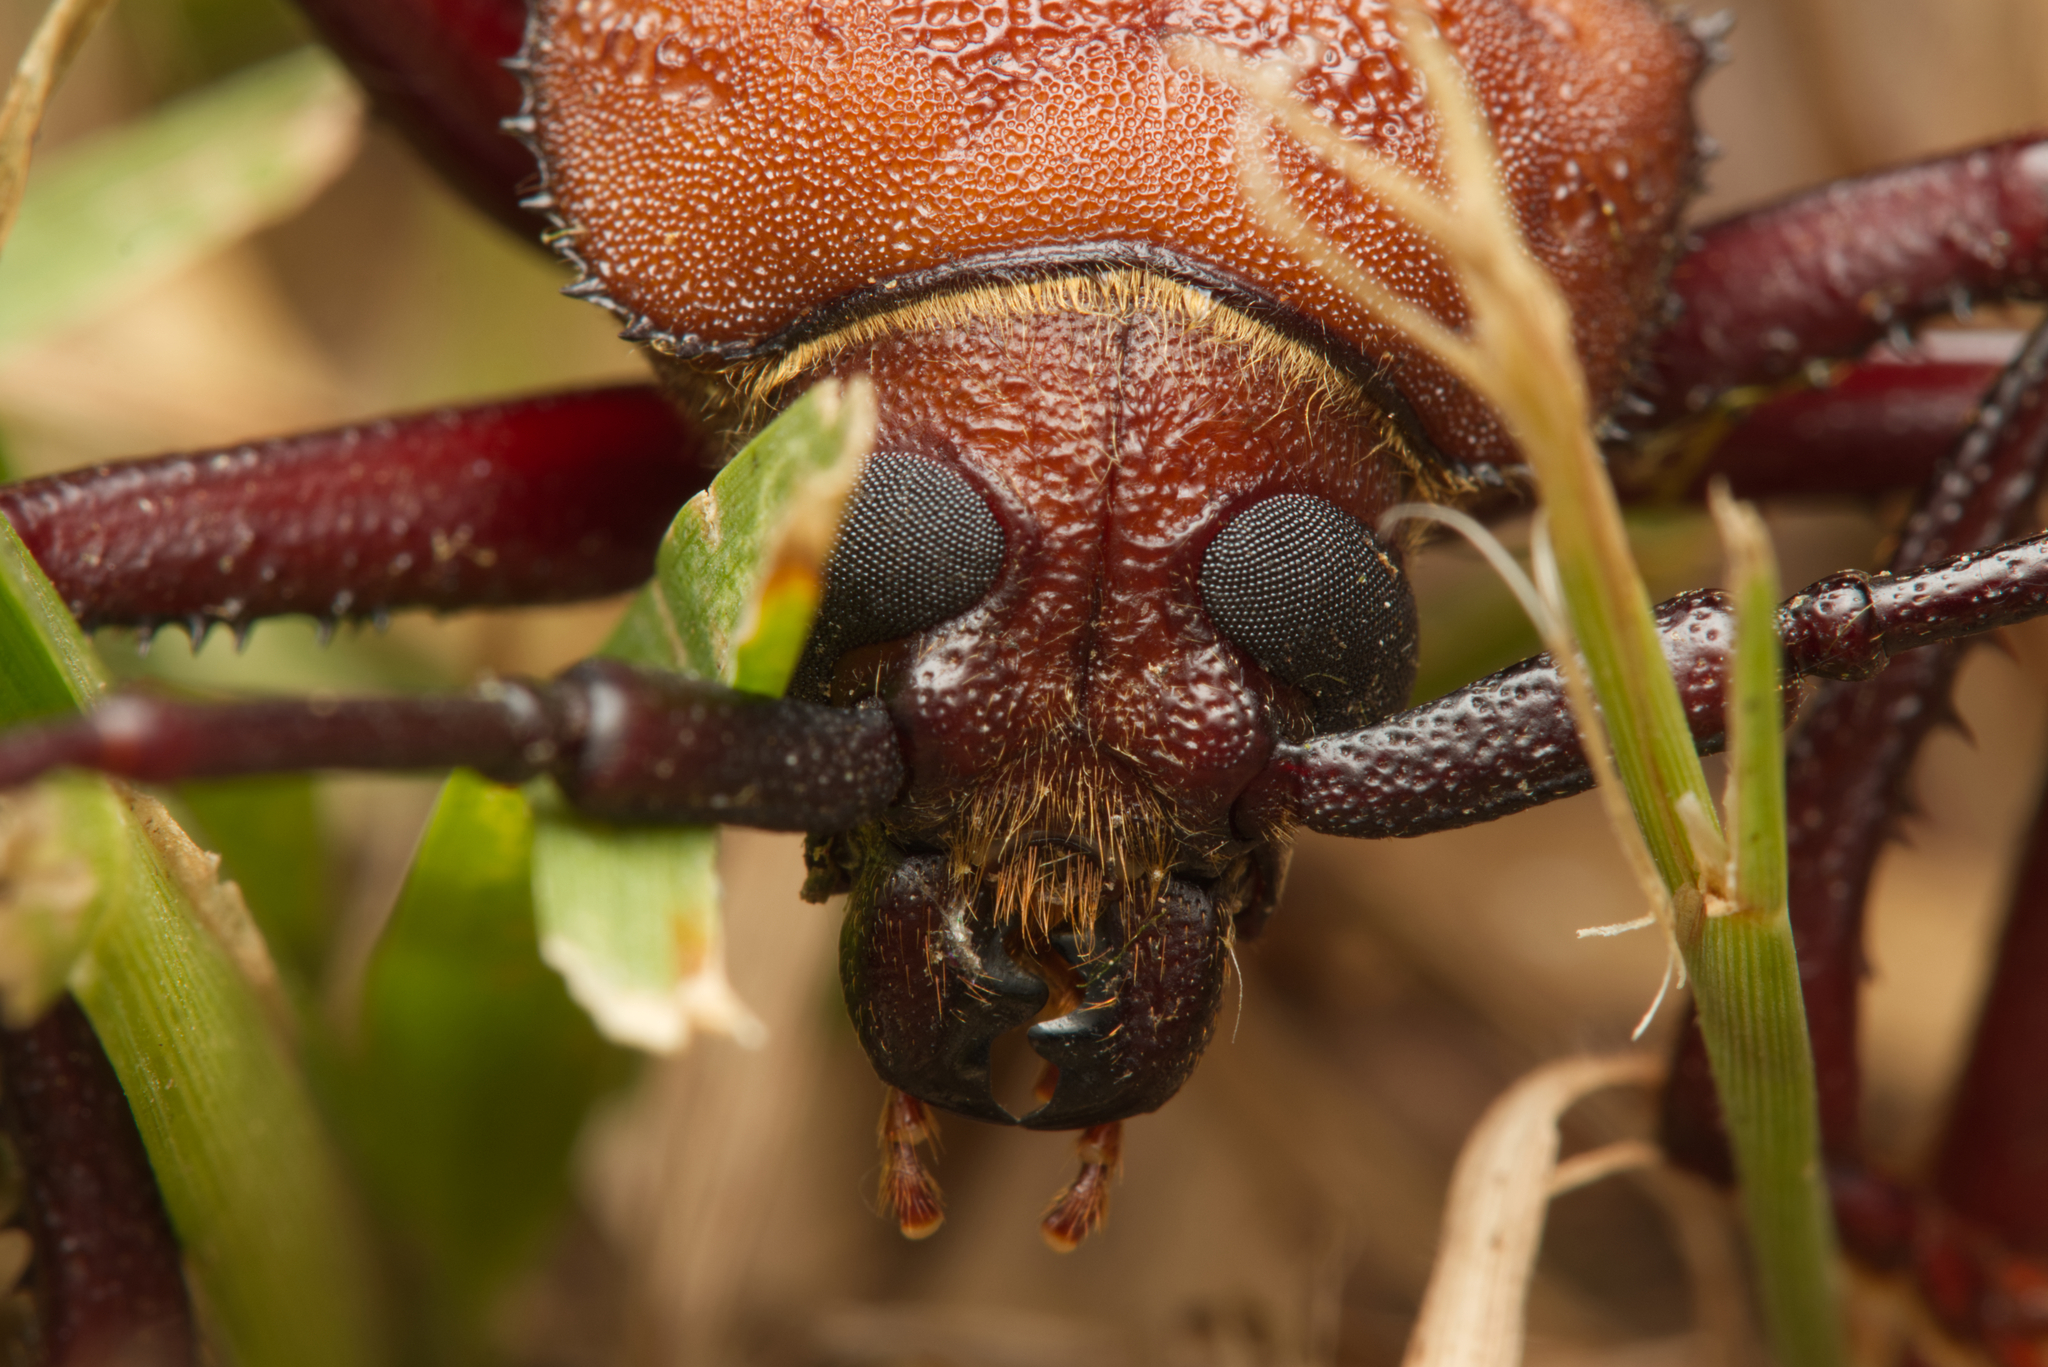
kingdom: Animalia
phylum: Arthropoda
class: Insecta
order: Coleoptera
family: Cerambycidae
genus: Agrianome
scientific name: Agrianome spinicollis
